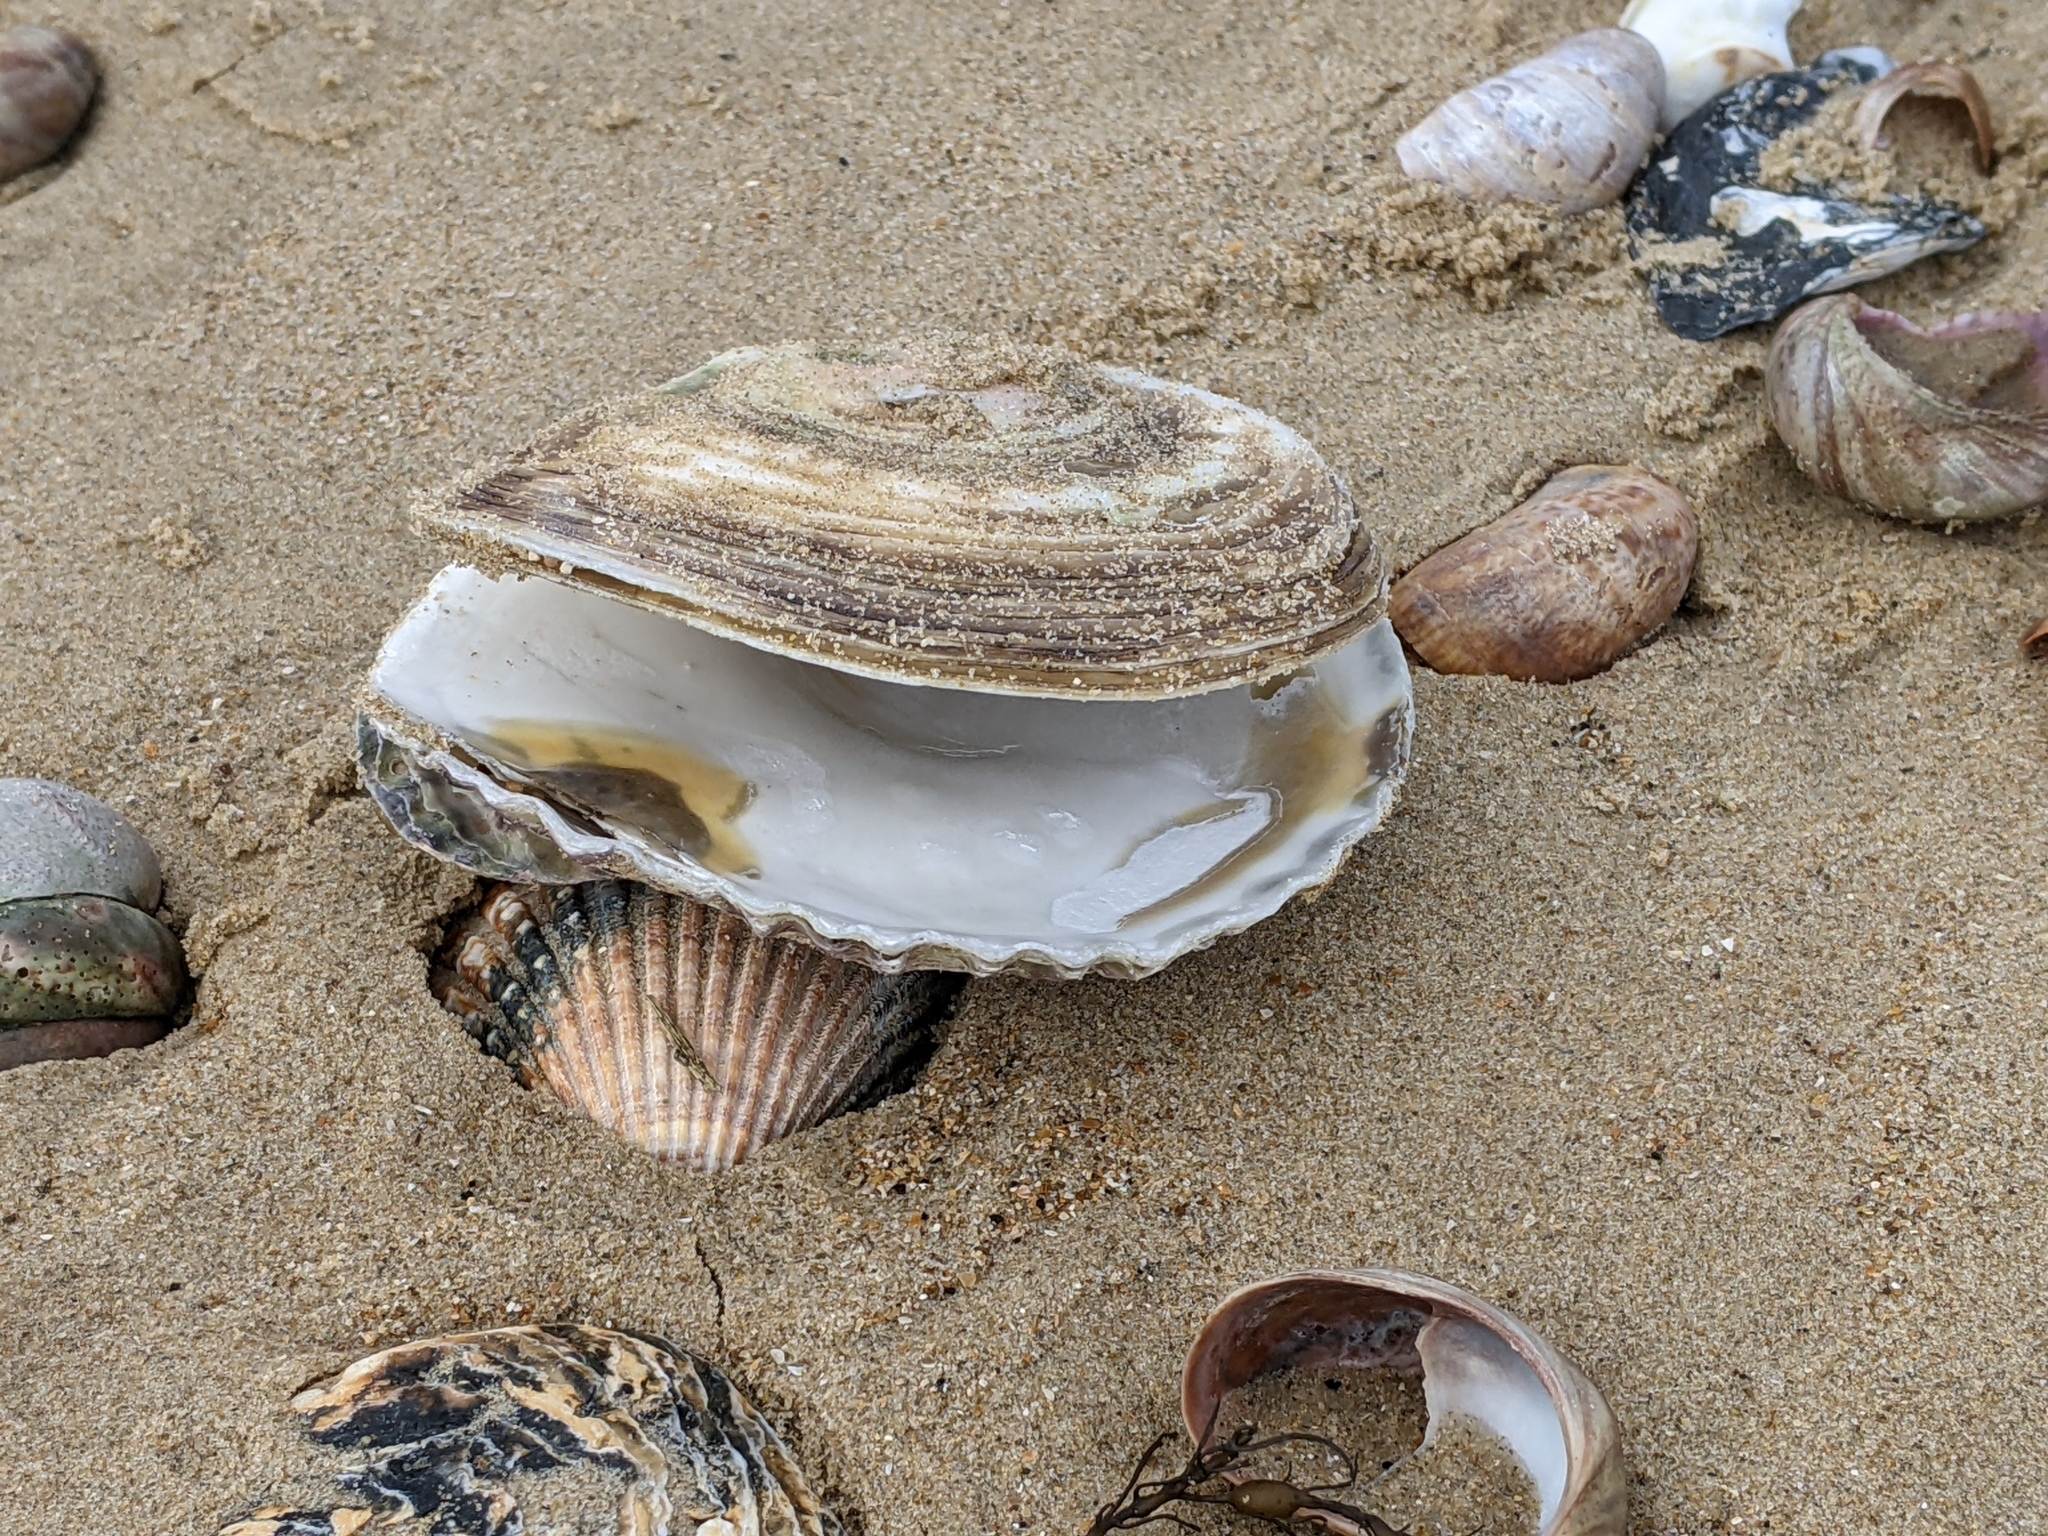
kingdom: Animalia
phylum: Mollusca
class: Bivalvia
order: Ostreida
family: Ostreidae
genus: Ostrea
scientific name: Ostrea edulis
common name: Flat oyster
